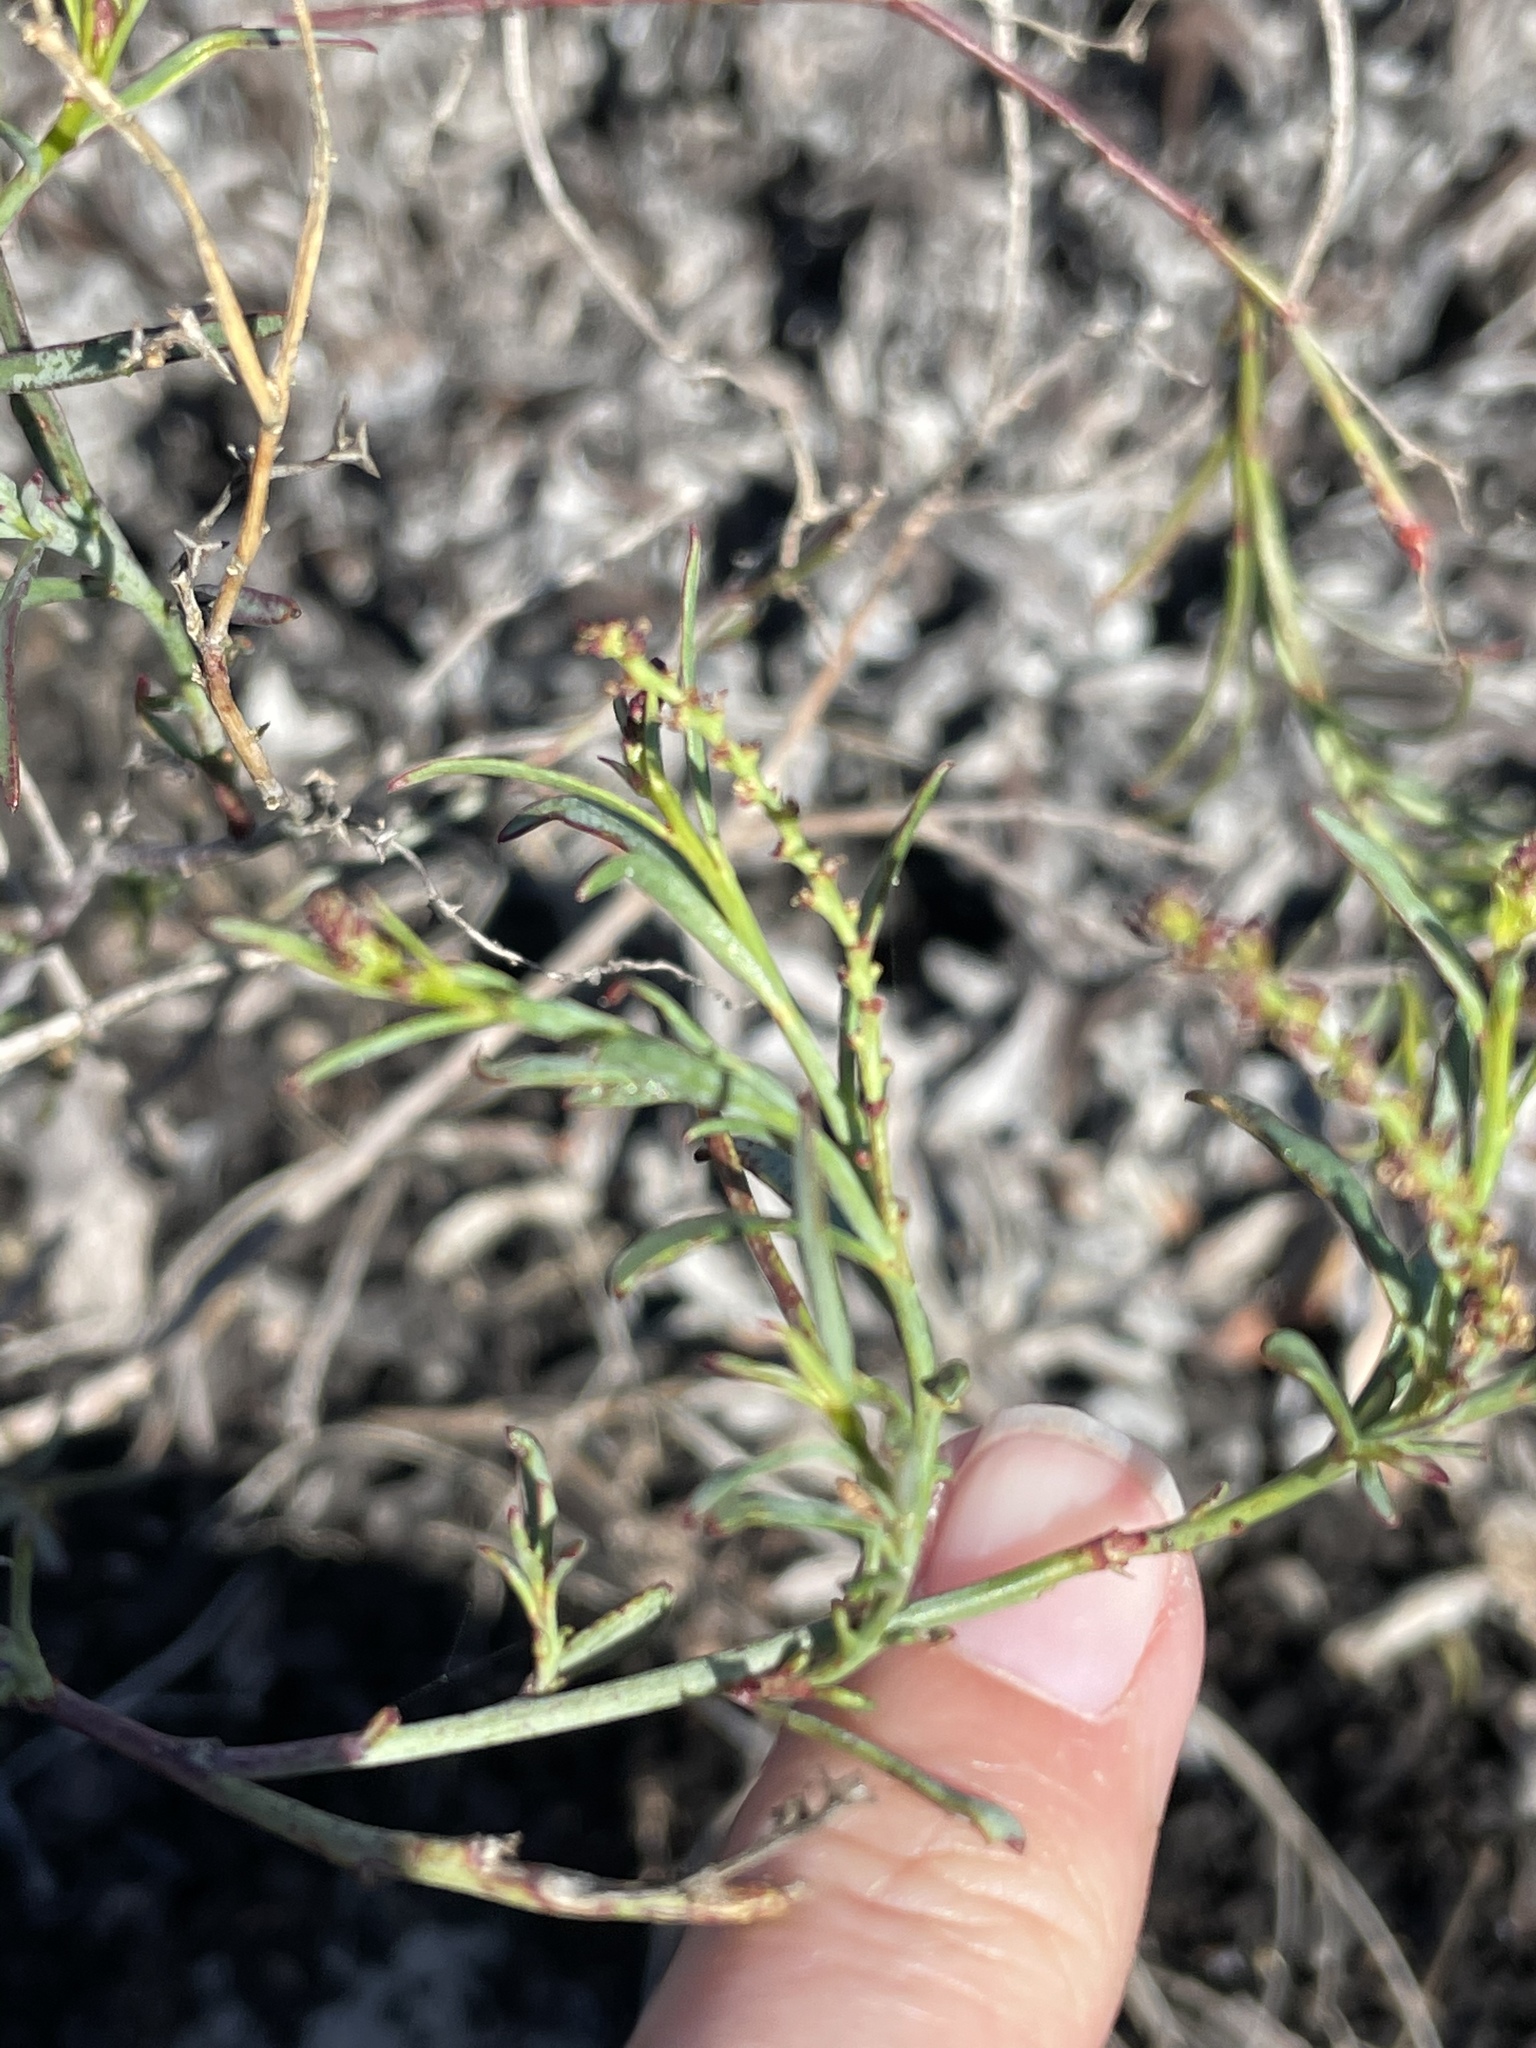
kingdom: Plantae
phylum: Tracheophyta
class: Magnoliopsida
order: Malpighiales
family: Euphorbiaceae
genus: Stillingia
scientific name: Stillingia linearifolia
